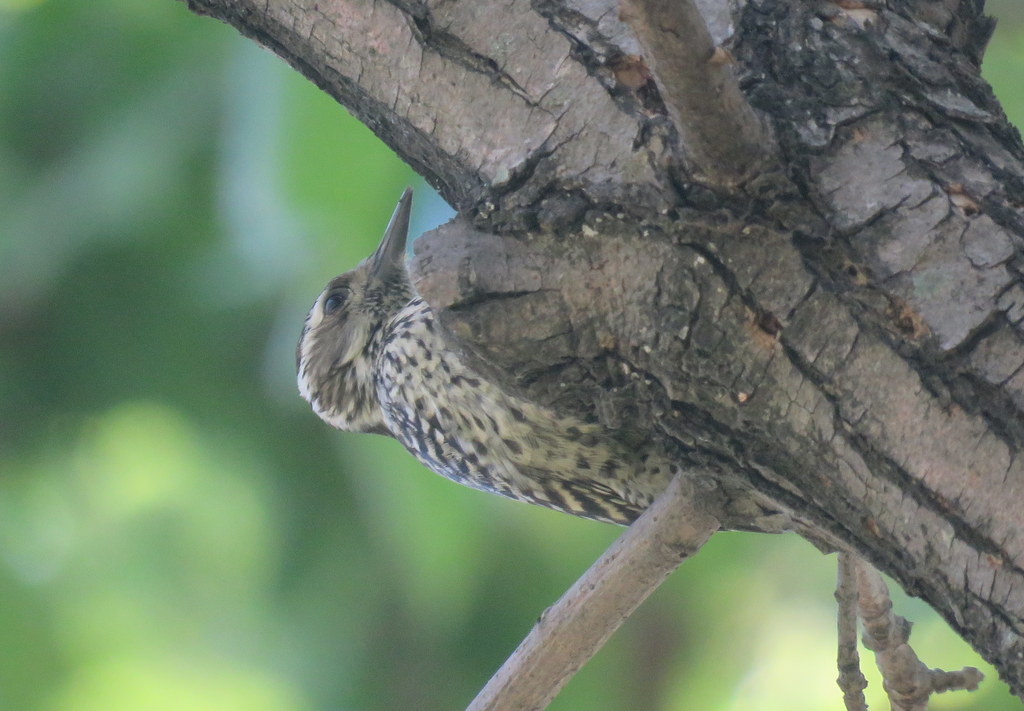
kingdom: Animalia
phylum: Chordata
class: Aves
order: Piciformes
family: Picidae
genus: Veniliornis
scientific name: Veniliornis mixtus
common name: Checkered woodpecker
